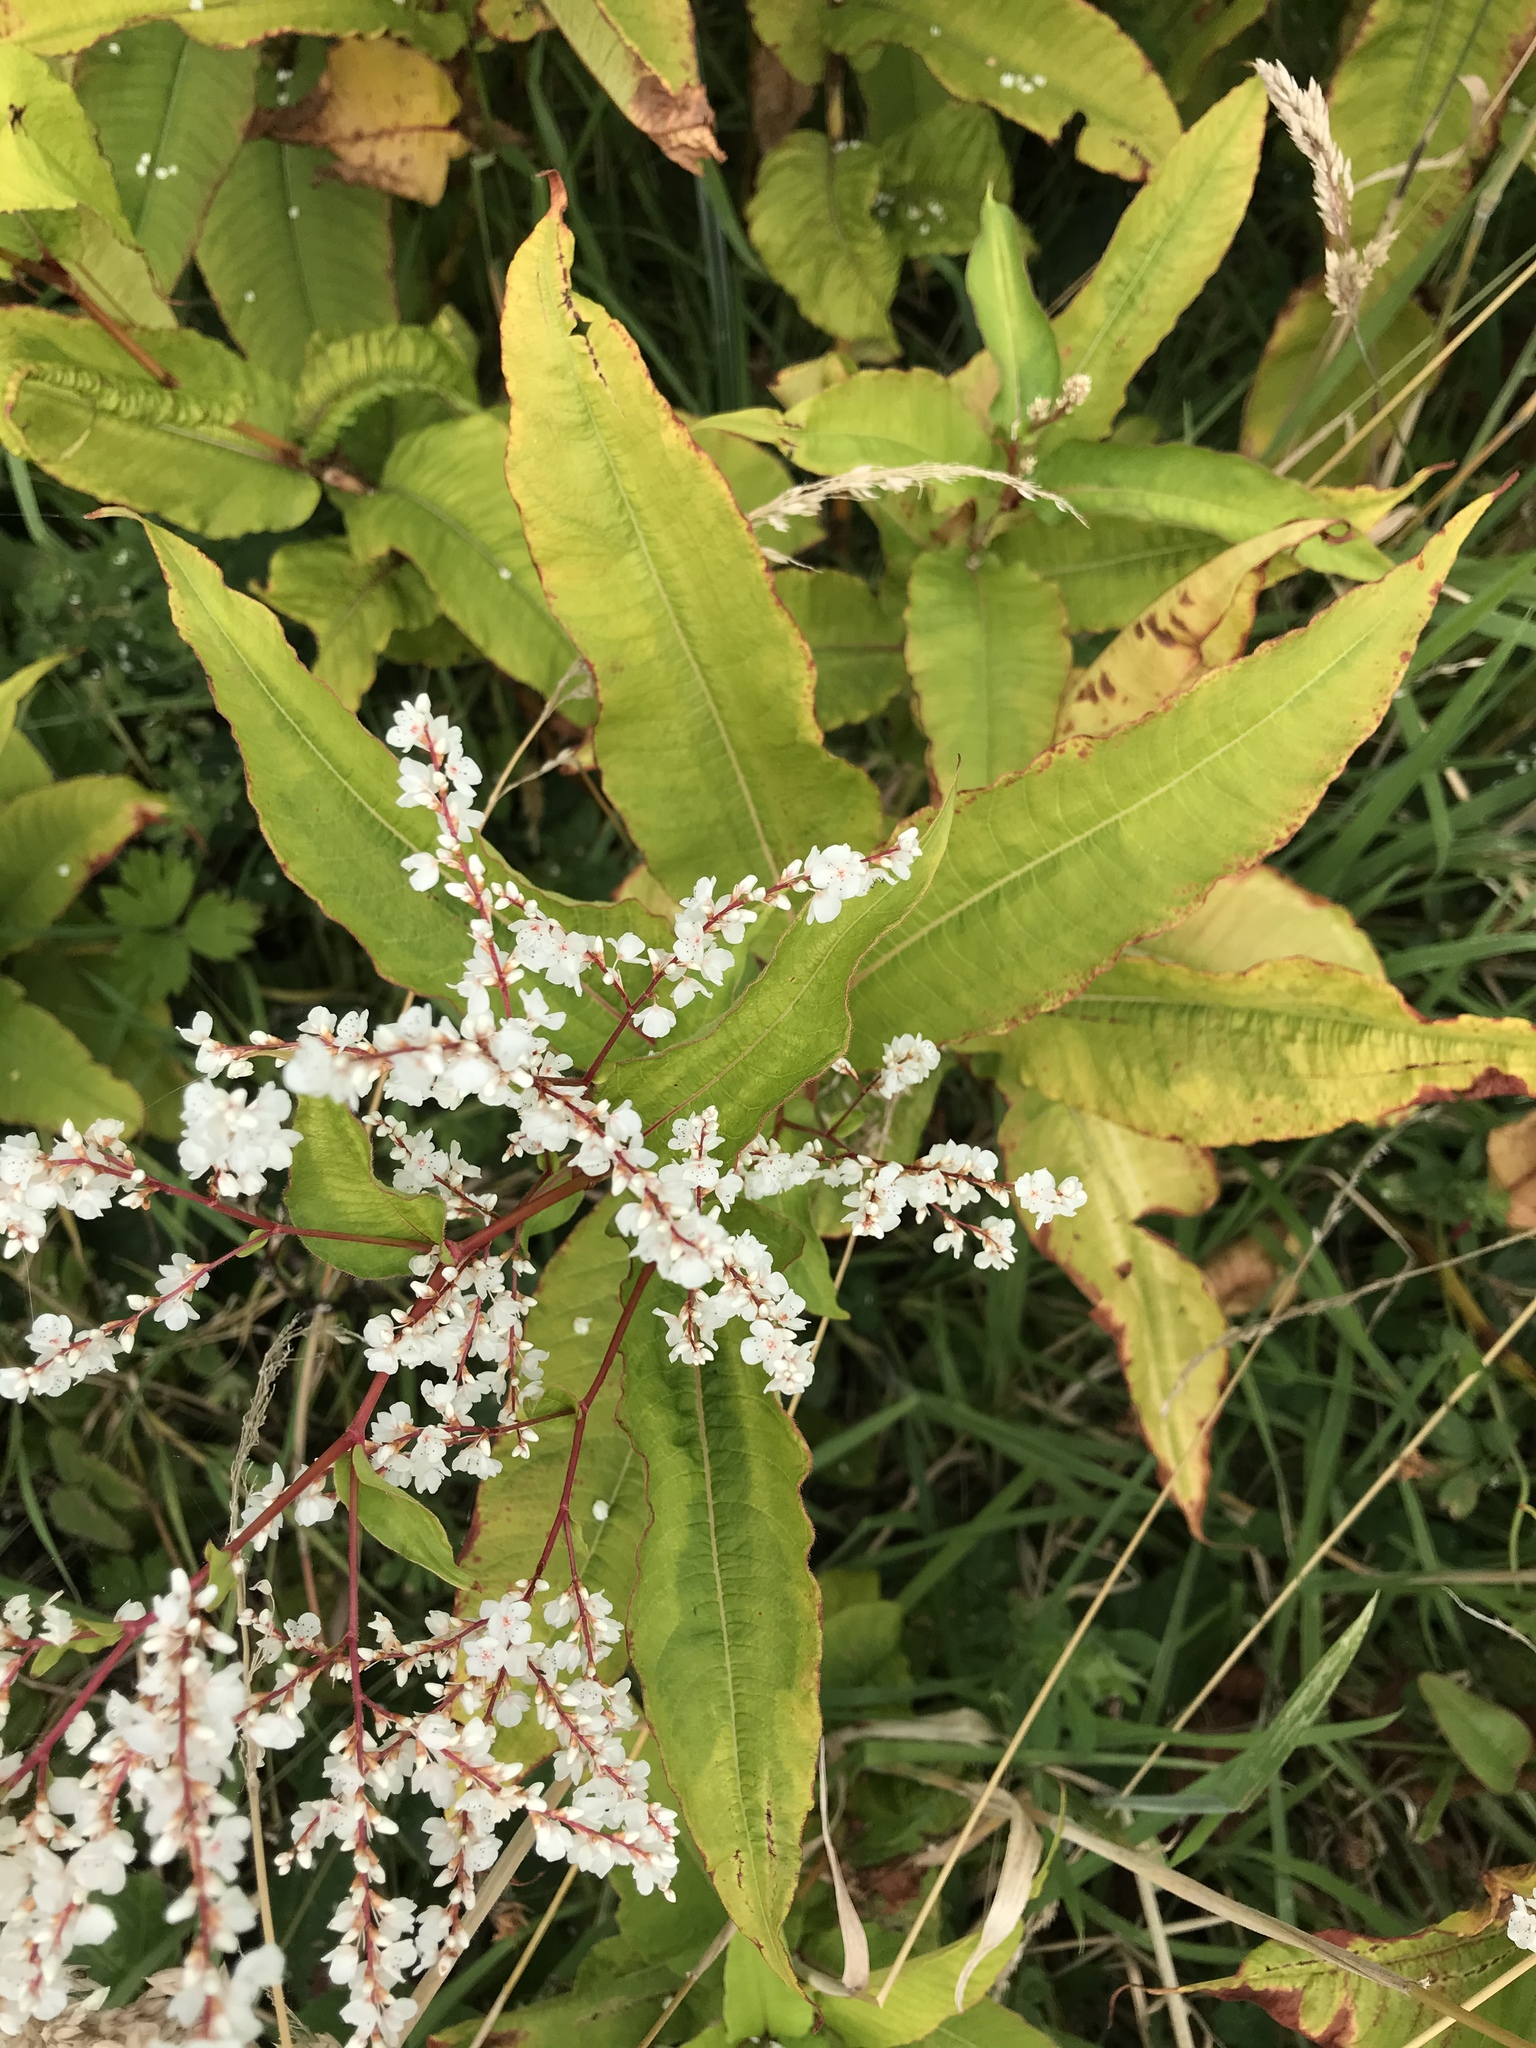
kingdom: Plantae
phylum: Tracheophyta
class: Magnoliopsida
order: Caryophyllales
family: Polygonaceae
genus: Koenigia
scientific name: Koenigia polystachya
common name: Himalayan knotweed
